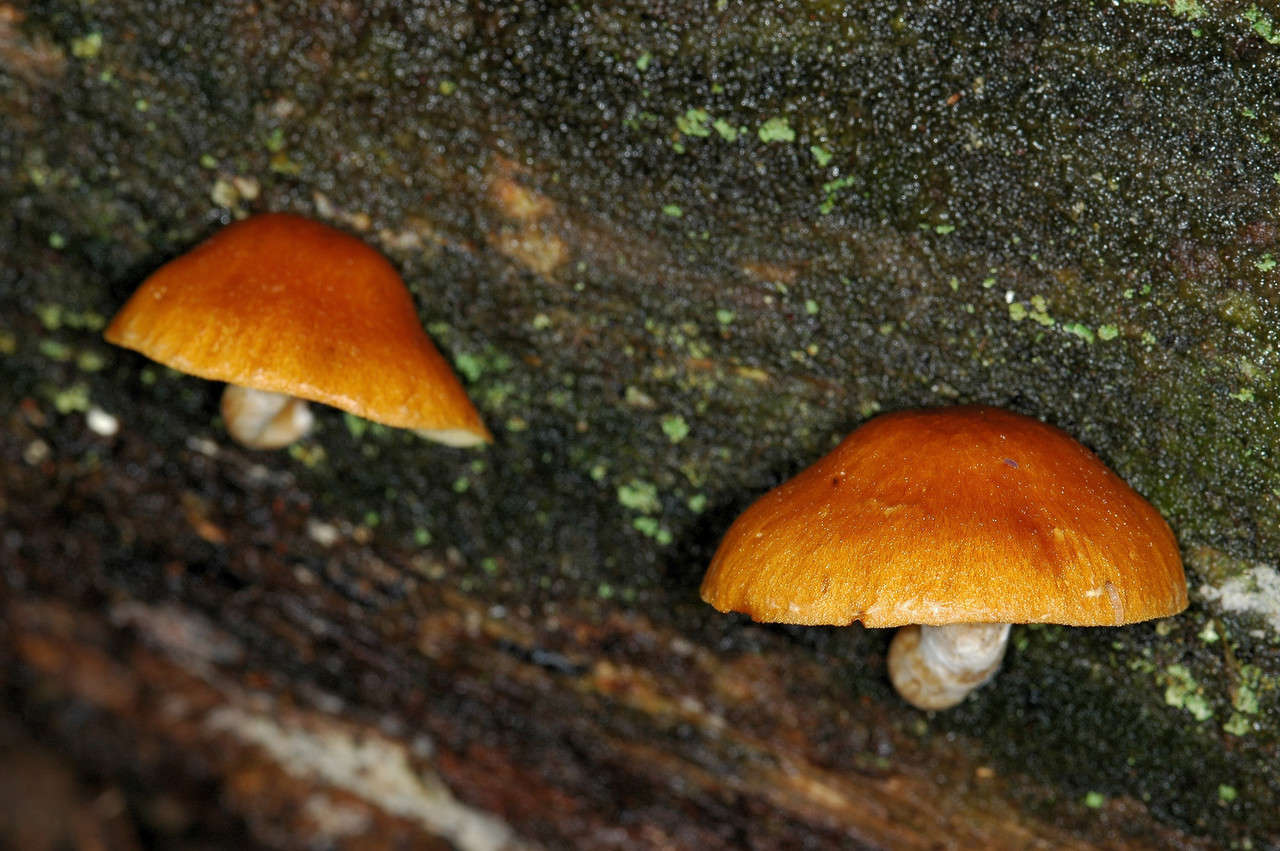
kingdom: Fungi
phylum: Basidiomycota
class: Agaricomycetes
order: Agaricales
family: Hymenogastraceae
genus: Gymnopilus
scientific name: Gymnopilus allantopus
